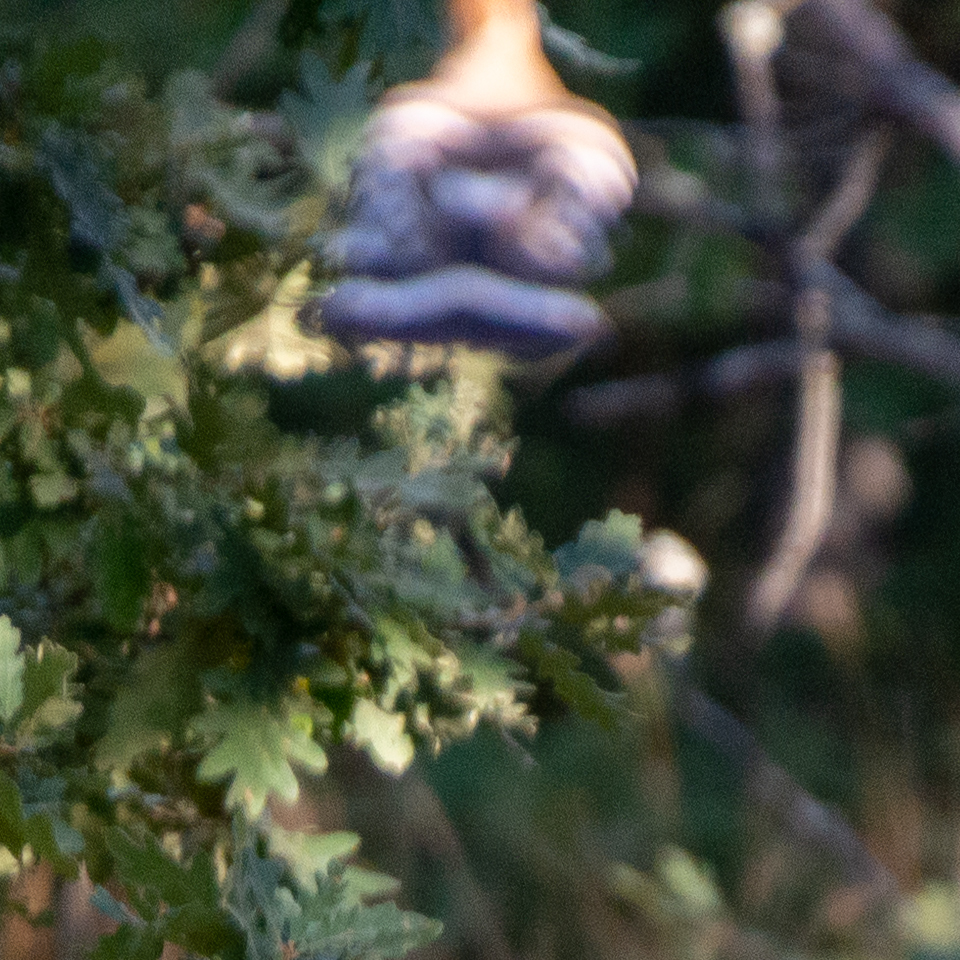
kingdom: Animalia
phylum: Chordata
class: Aves
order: Bucerotiformes
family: Upupidae
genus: Upupa
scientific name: Upupa epops
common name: Eurasian hoopoe
